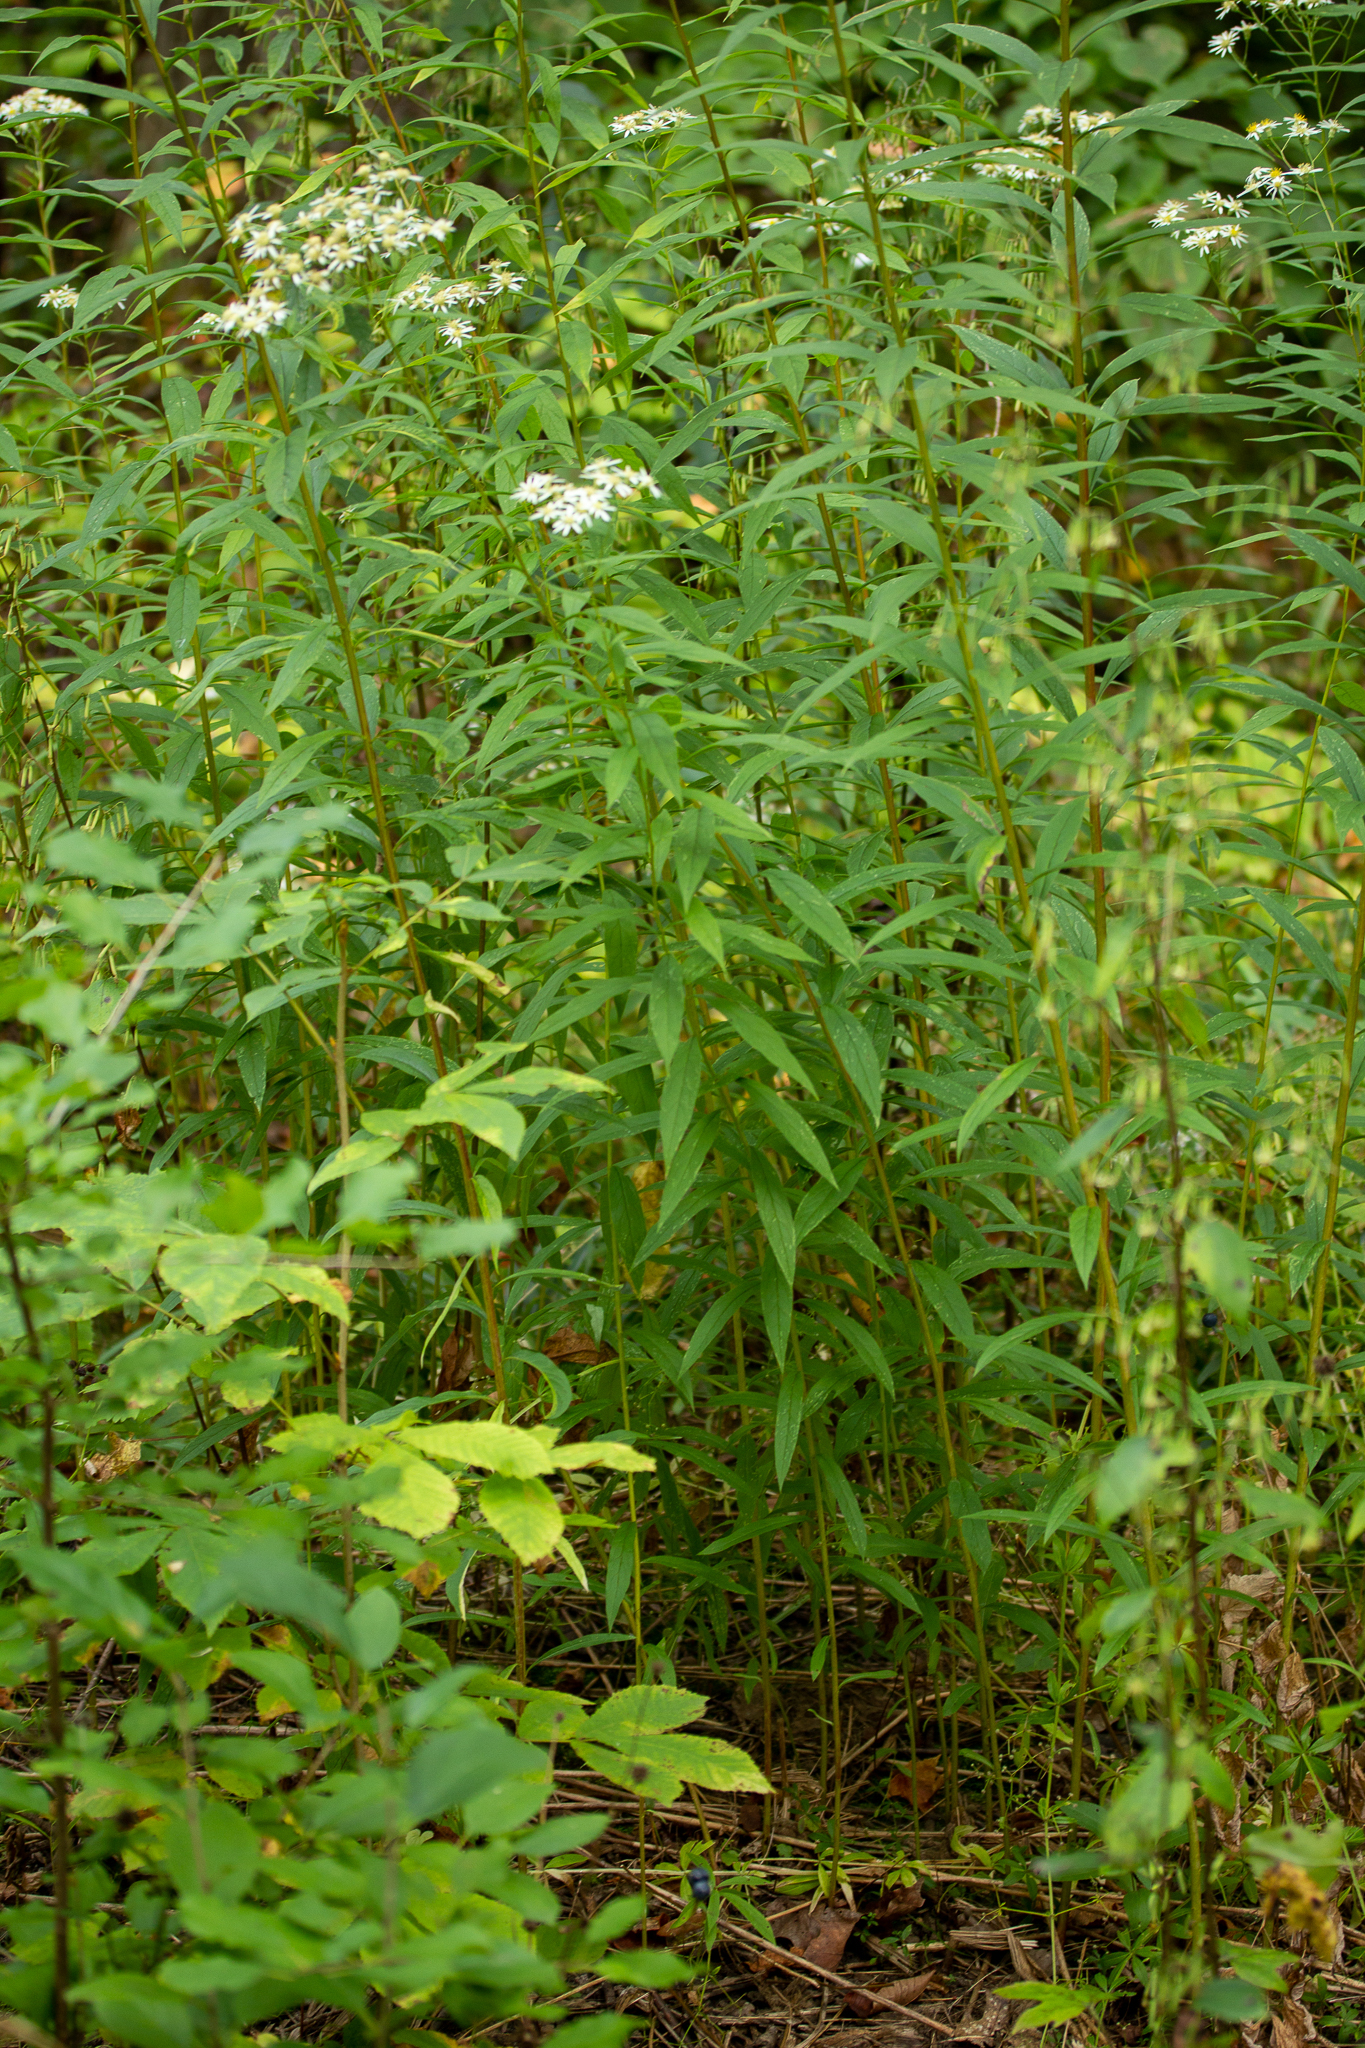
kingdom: Plantae
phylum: Tracheophyta
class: Magnoliopsida
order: Asterales
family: Asteraceae
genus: Doellingeria
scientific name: Doellingeria umbellata
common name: Flat-top white aster
